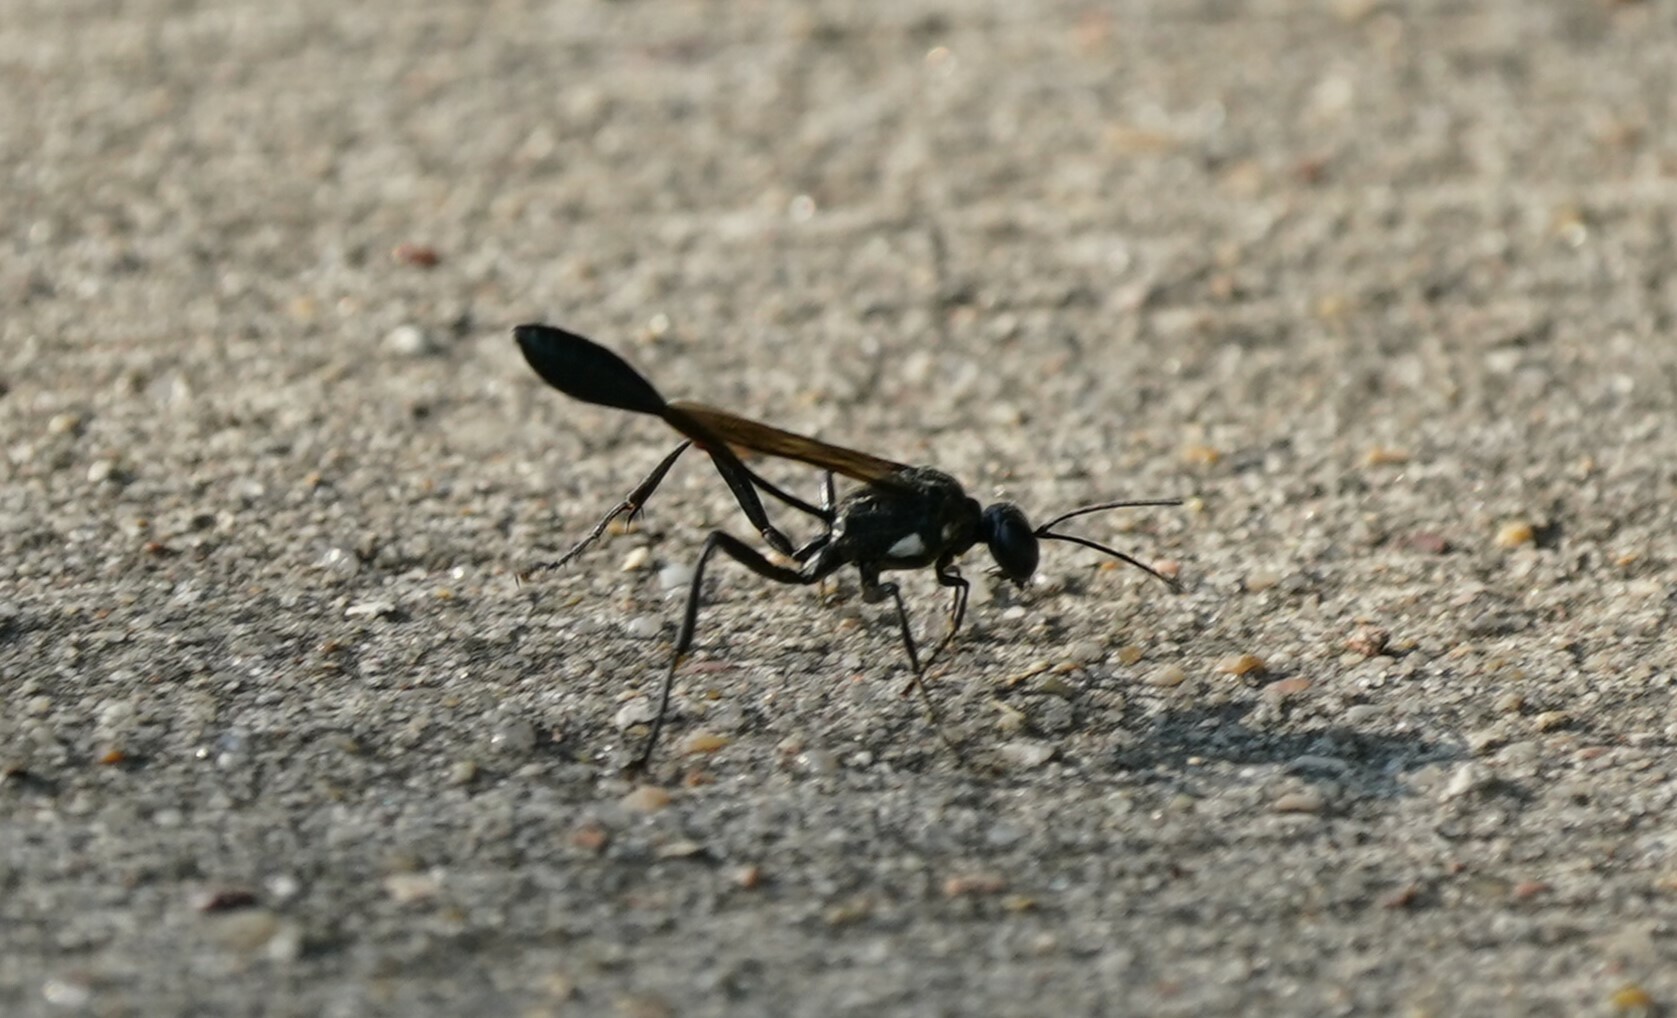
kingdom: Animalia
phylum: Arthropoda
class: Insecta
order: Hymenoptera
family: Sphecidae
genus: Eremnophila
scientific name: Eremnophila aureonotata
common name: Gold-marked thread-waisted wasp
